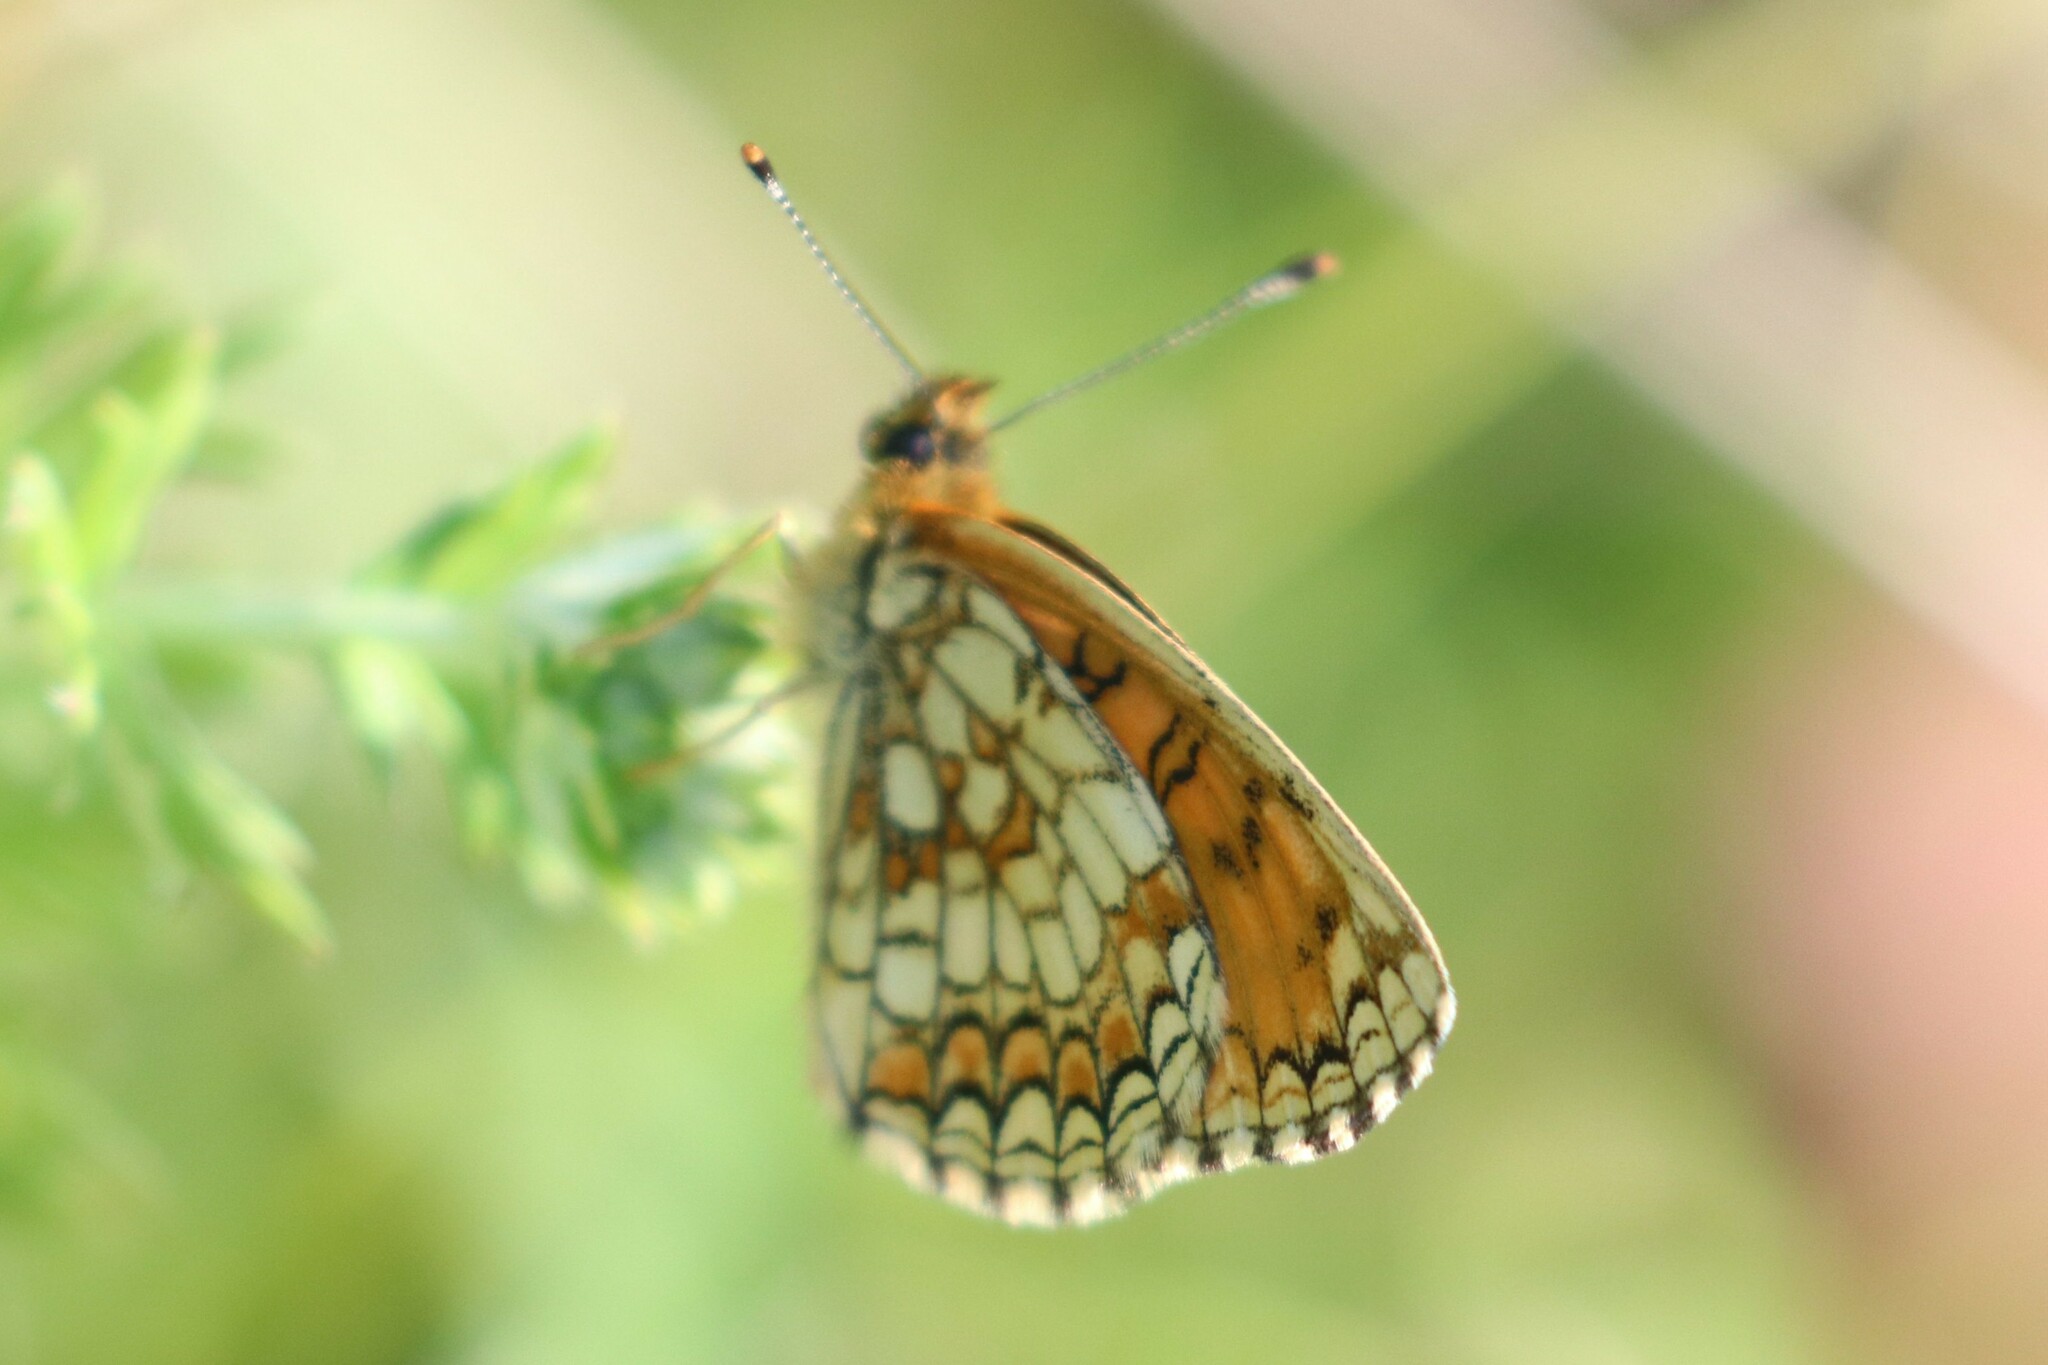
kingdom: Animalia
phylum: Arthropoda
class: Insecta
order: Lepidoptera
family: Nymphalidae
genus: Melitaea
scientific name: Melitaea athalia
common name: Heath fritillary
